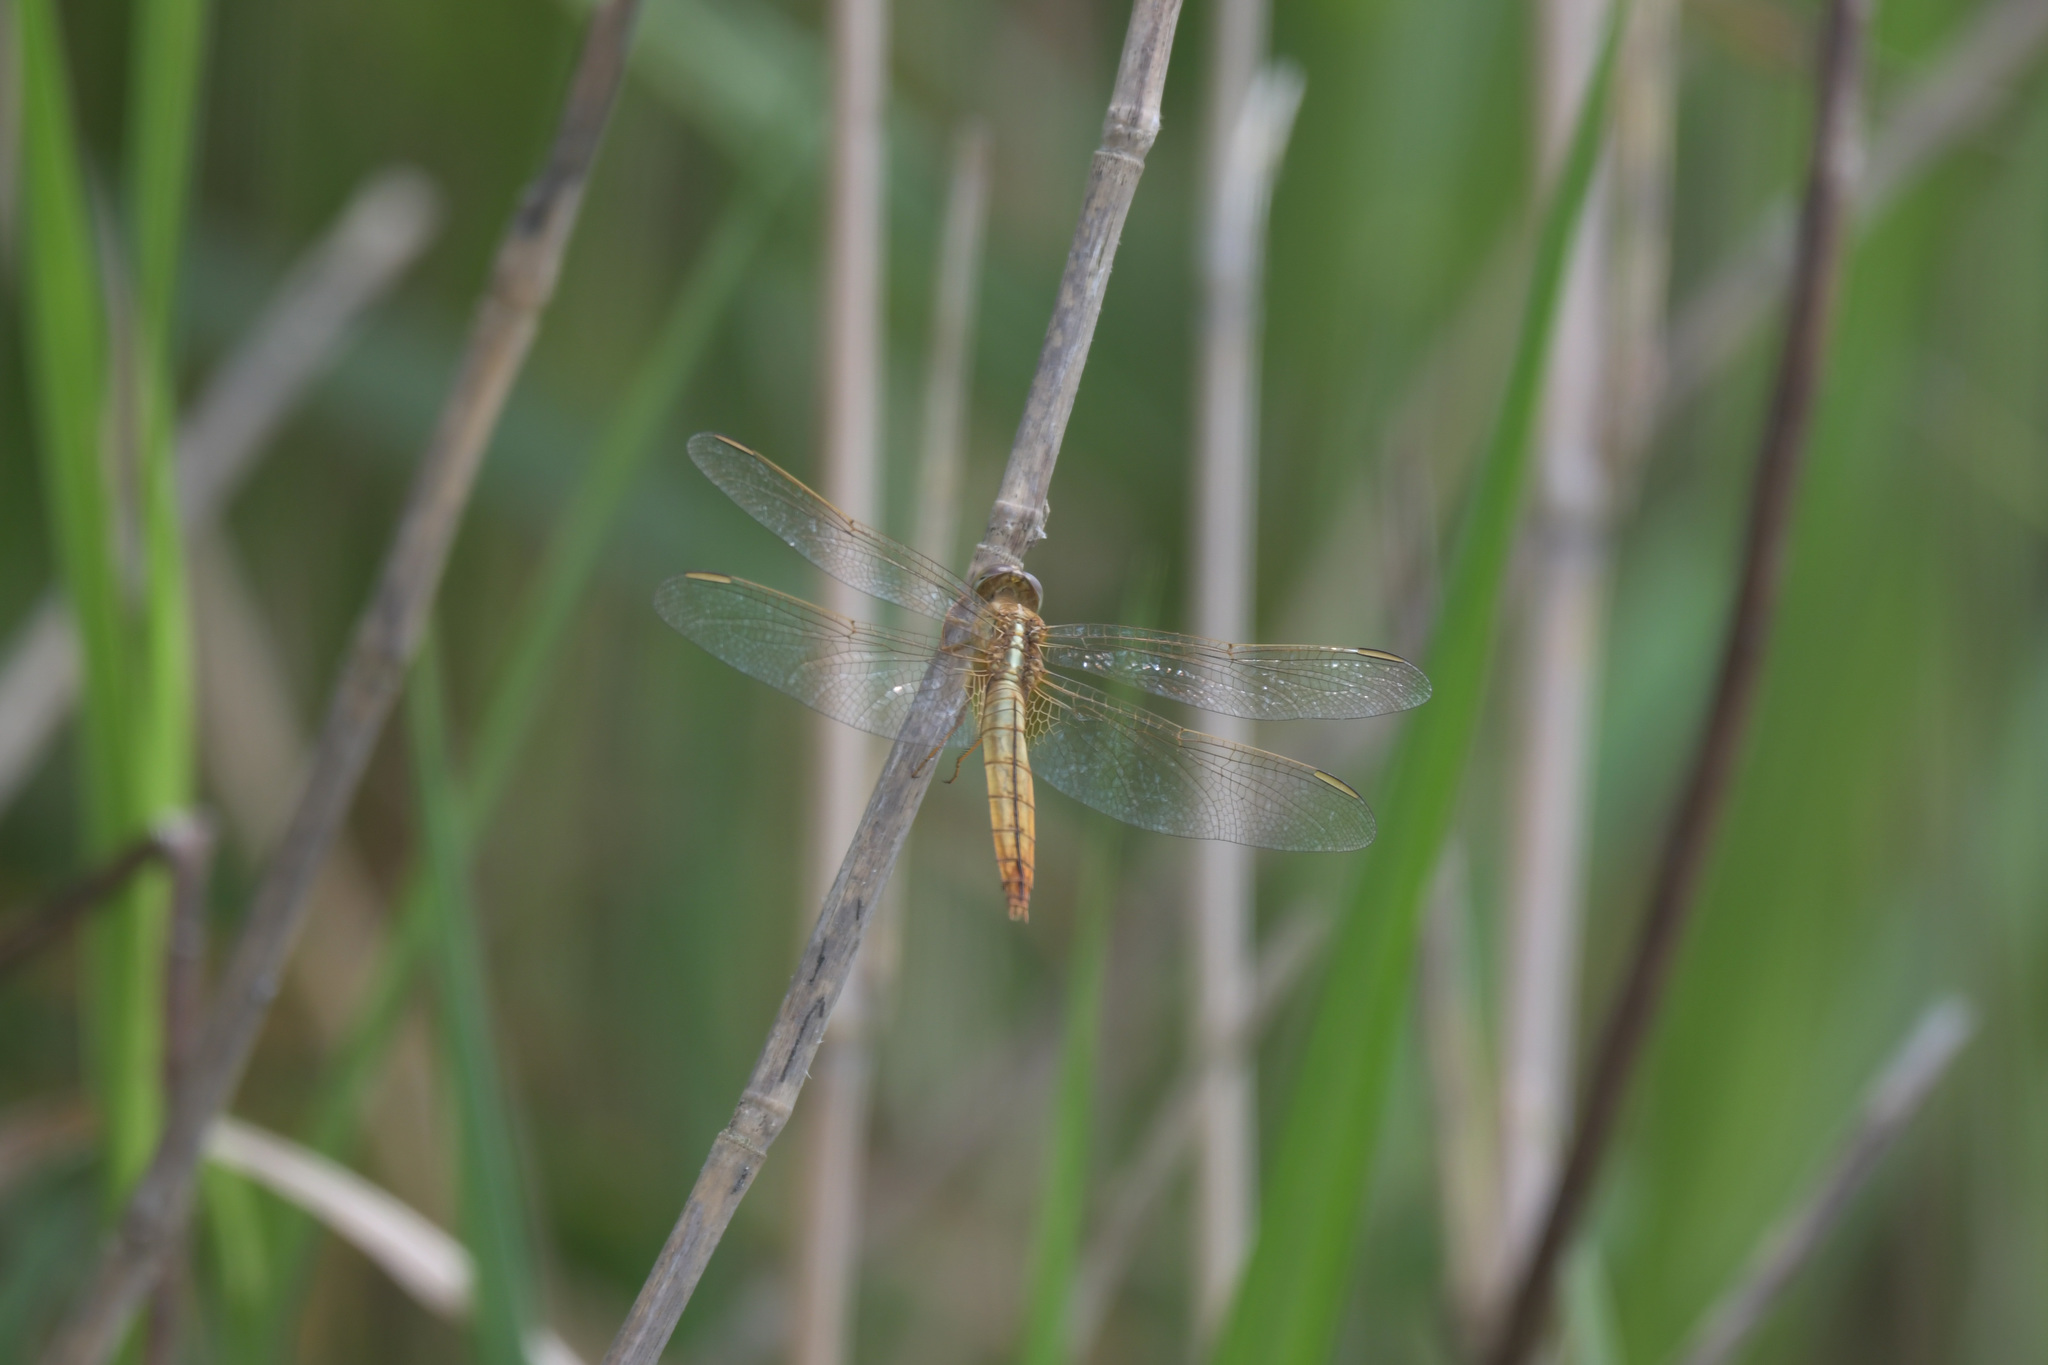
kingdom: Animalia
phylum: Arthropoda
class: Insecta
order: Odonata
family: Libellulidae
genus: Crocothemis
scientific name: Crocothemis servilia
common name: Scarlet skimmer
